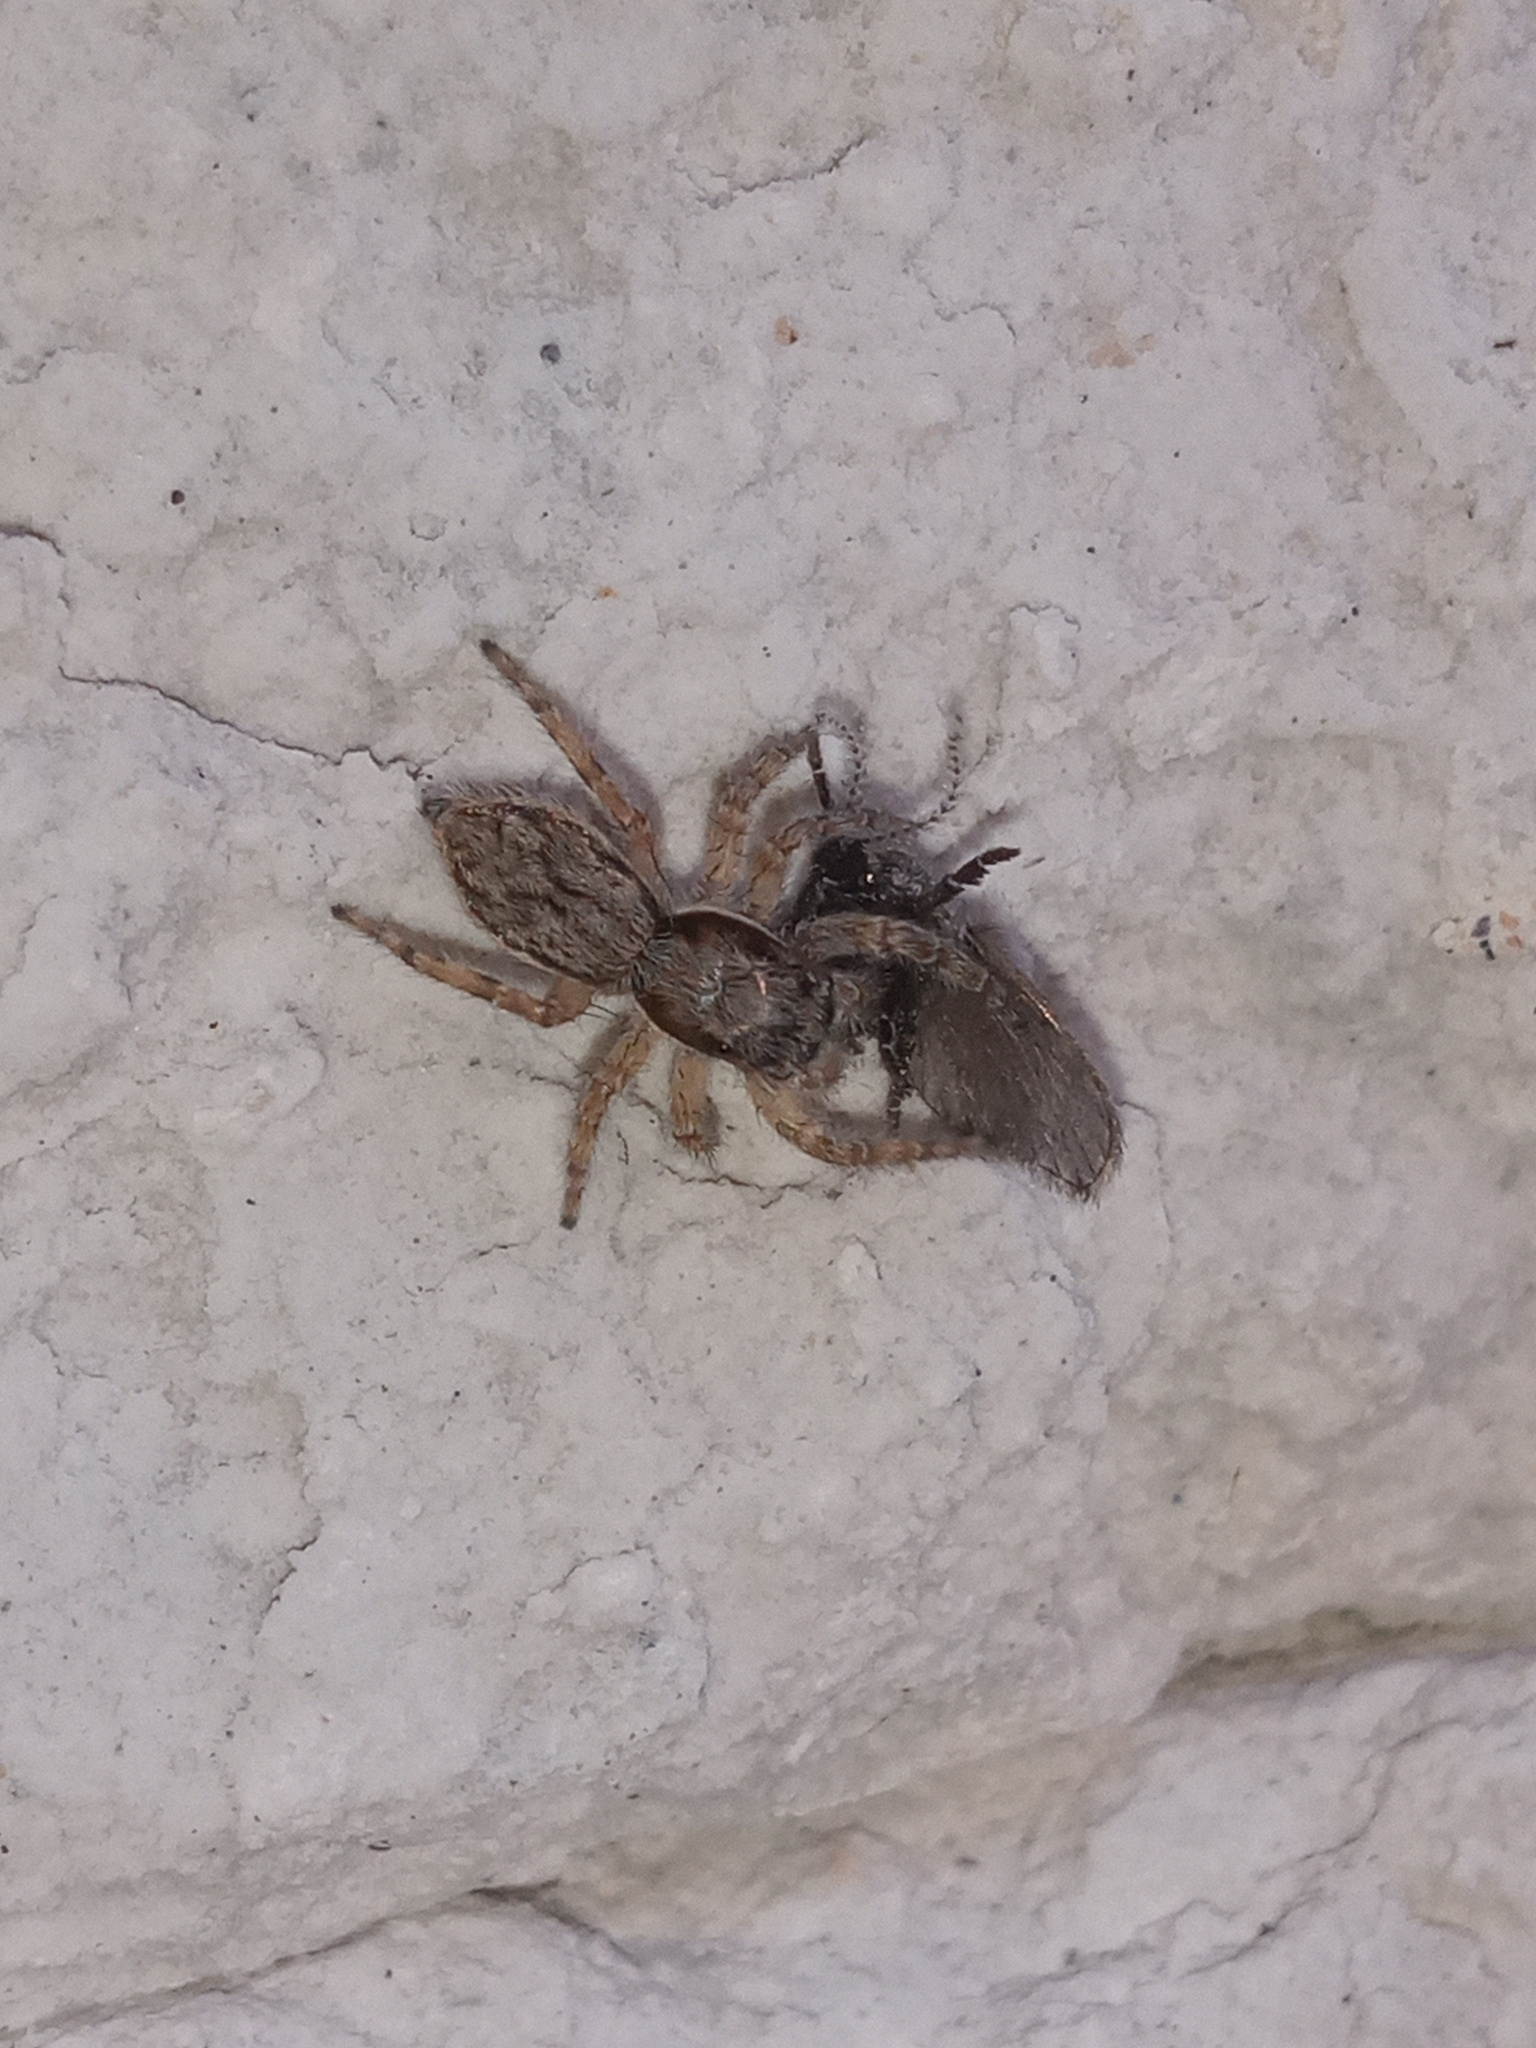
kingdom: Animalia
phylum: Arthropoda
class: Arachnida
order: Araneae
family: Salticidae
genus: Menemerus
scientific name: Menemerus bivittatus
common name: Gray wall jumper
